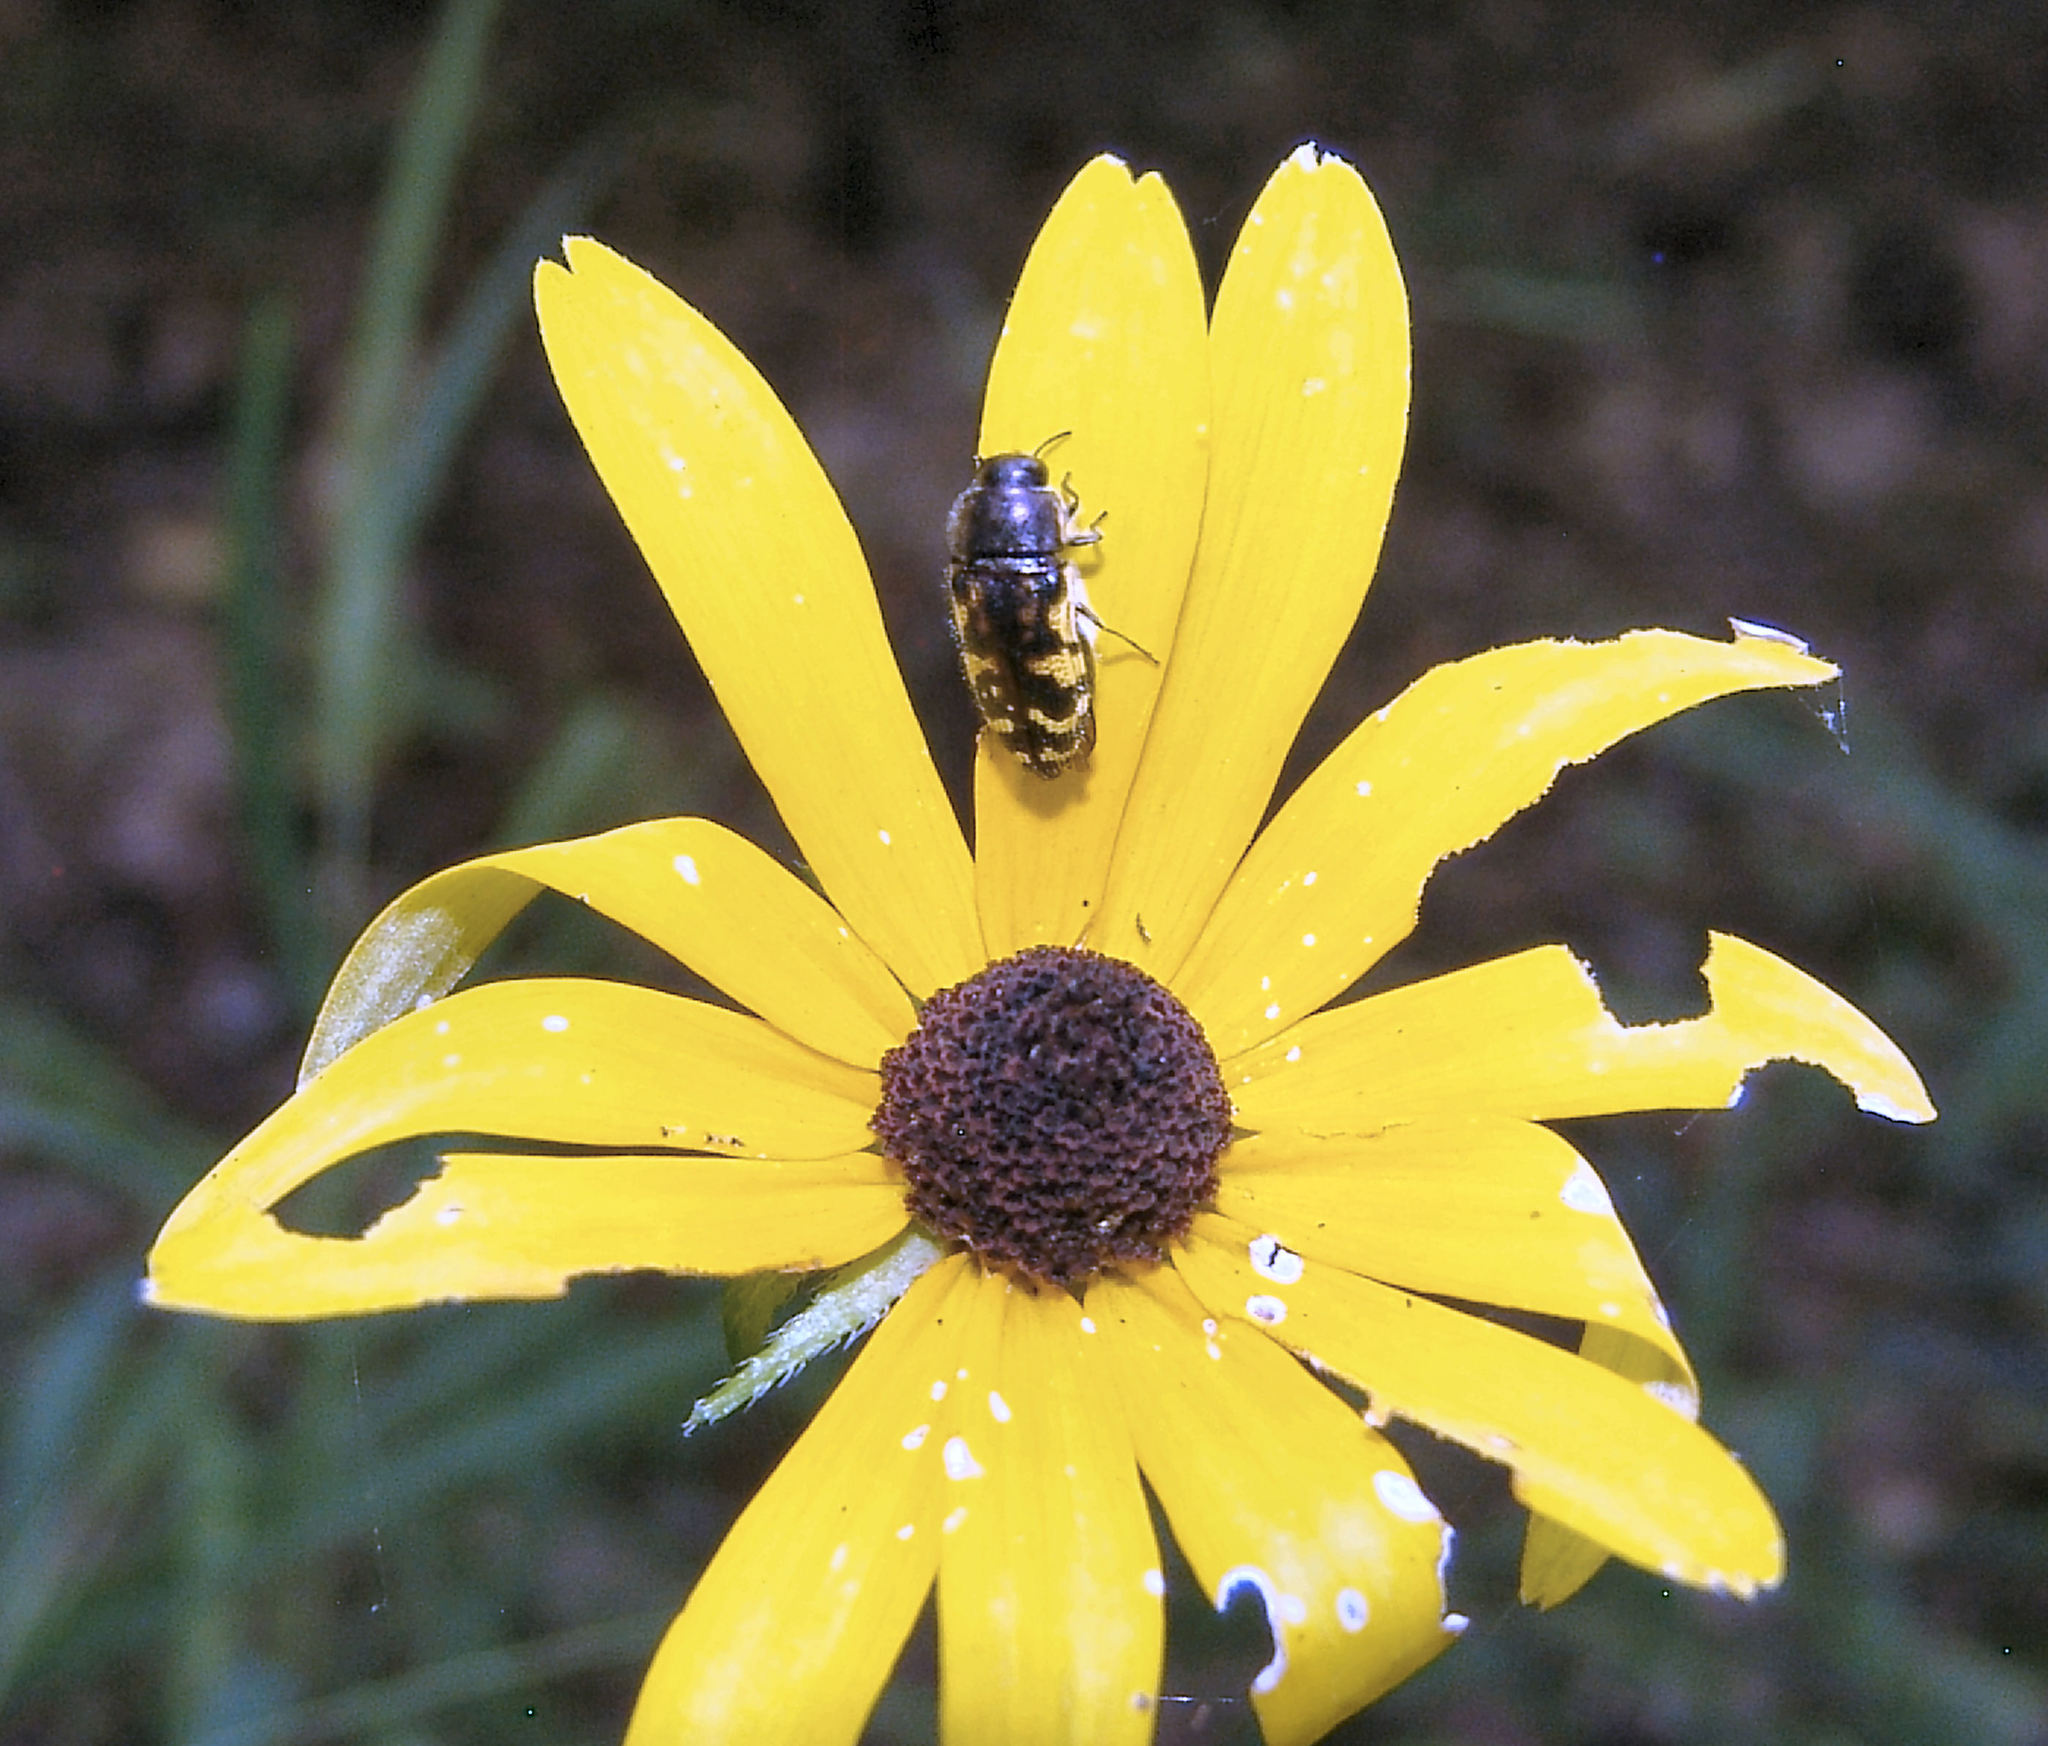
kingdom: Animalia
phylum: Arthropoda
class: Insecta
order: Coleoptera
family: Buprestidae
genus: Acmaeodera
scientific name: Acmaeodera pulchella
